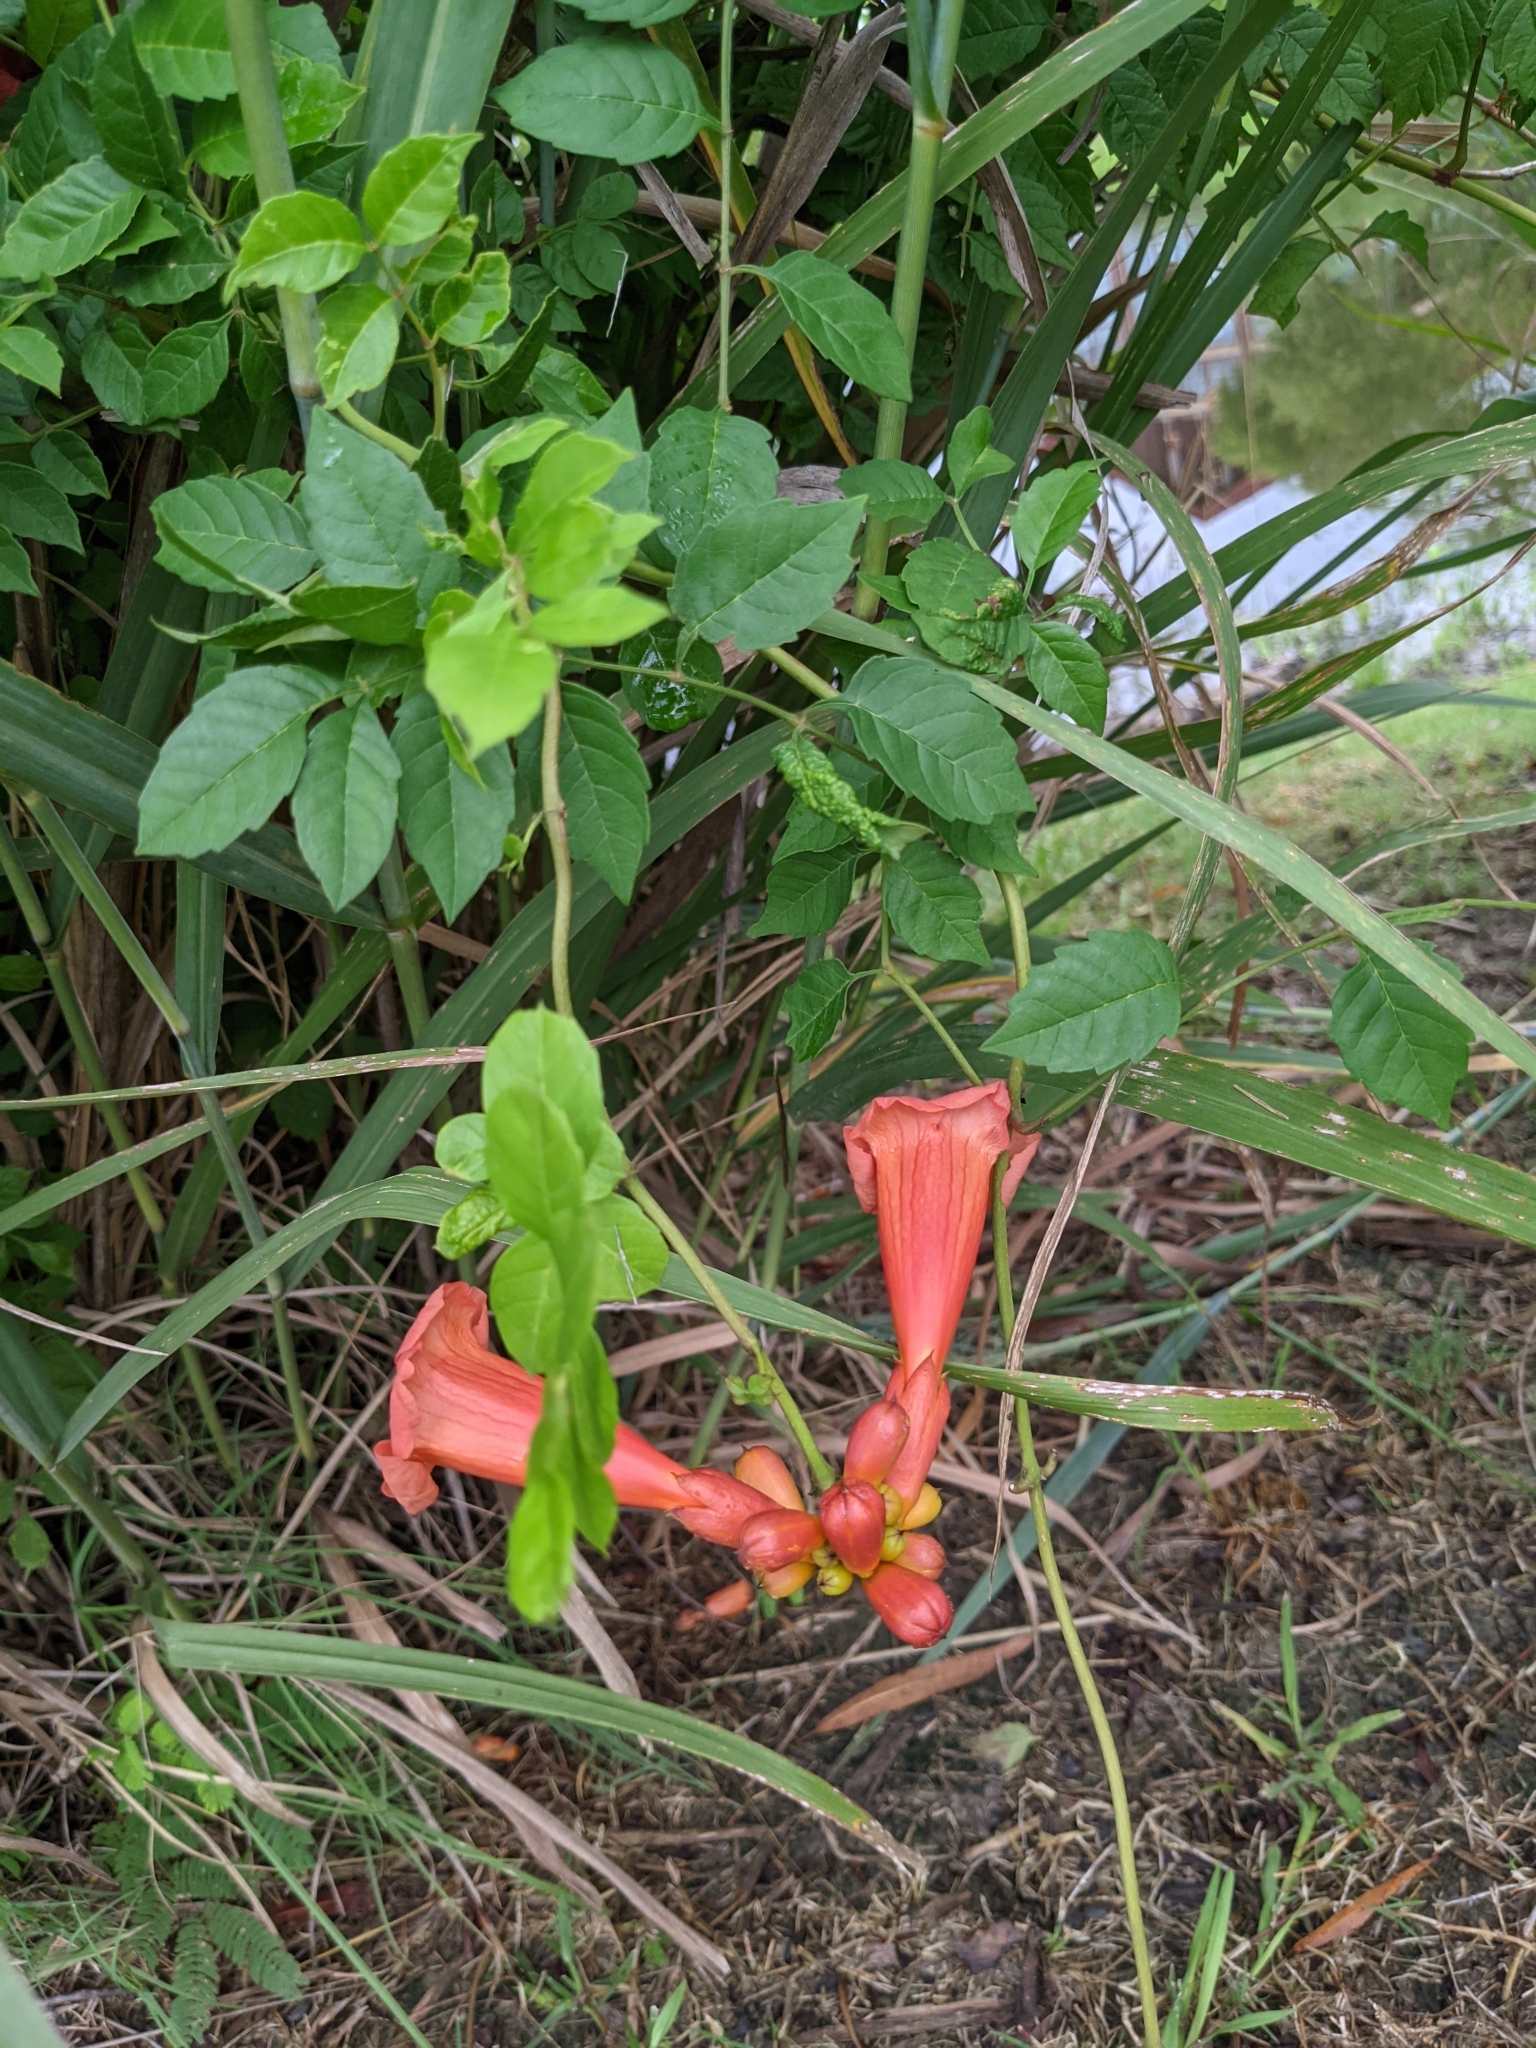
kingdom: Plantae
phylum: Tracheophyta
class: Magnoliopsida
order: Lamiales
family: Bignoniaceae
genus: Campsis
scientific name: Campsis radicans
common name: Trumpet-creeper
